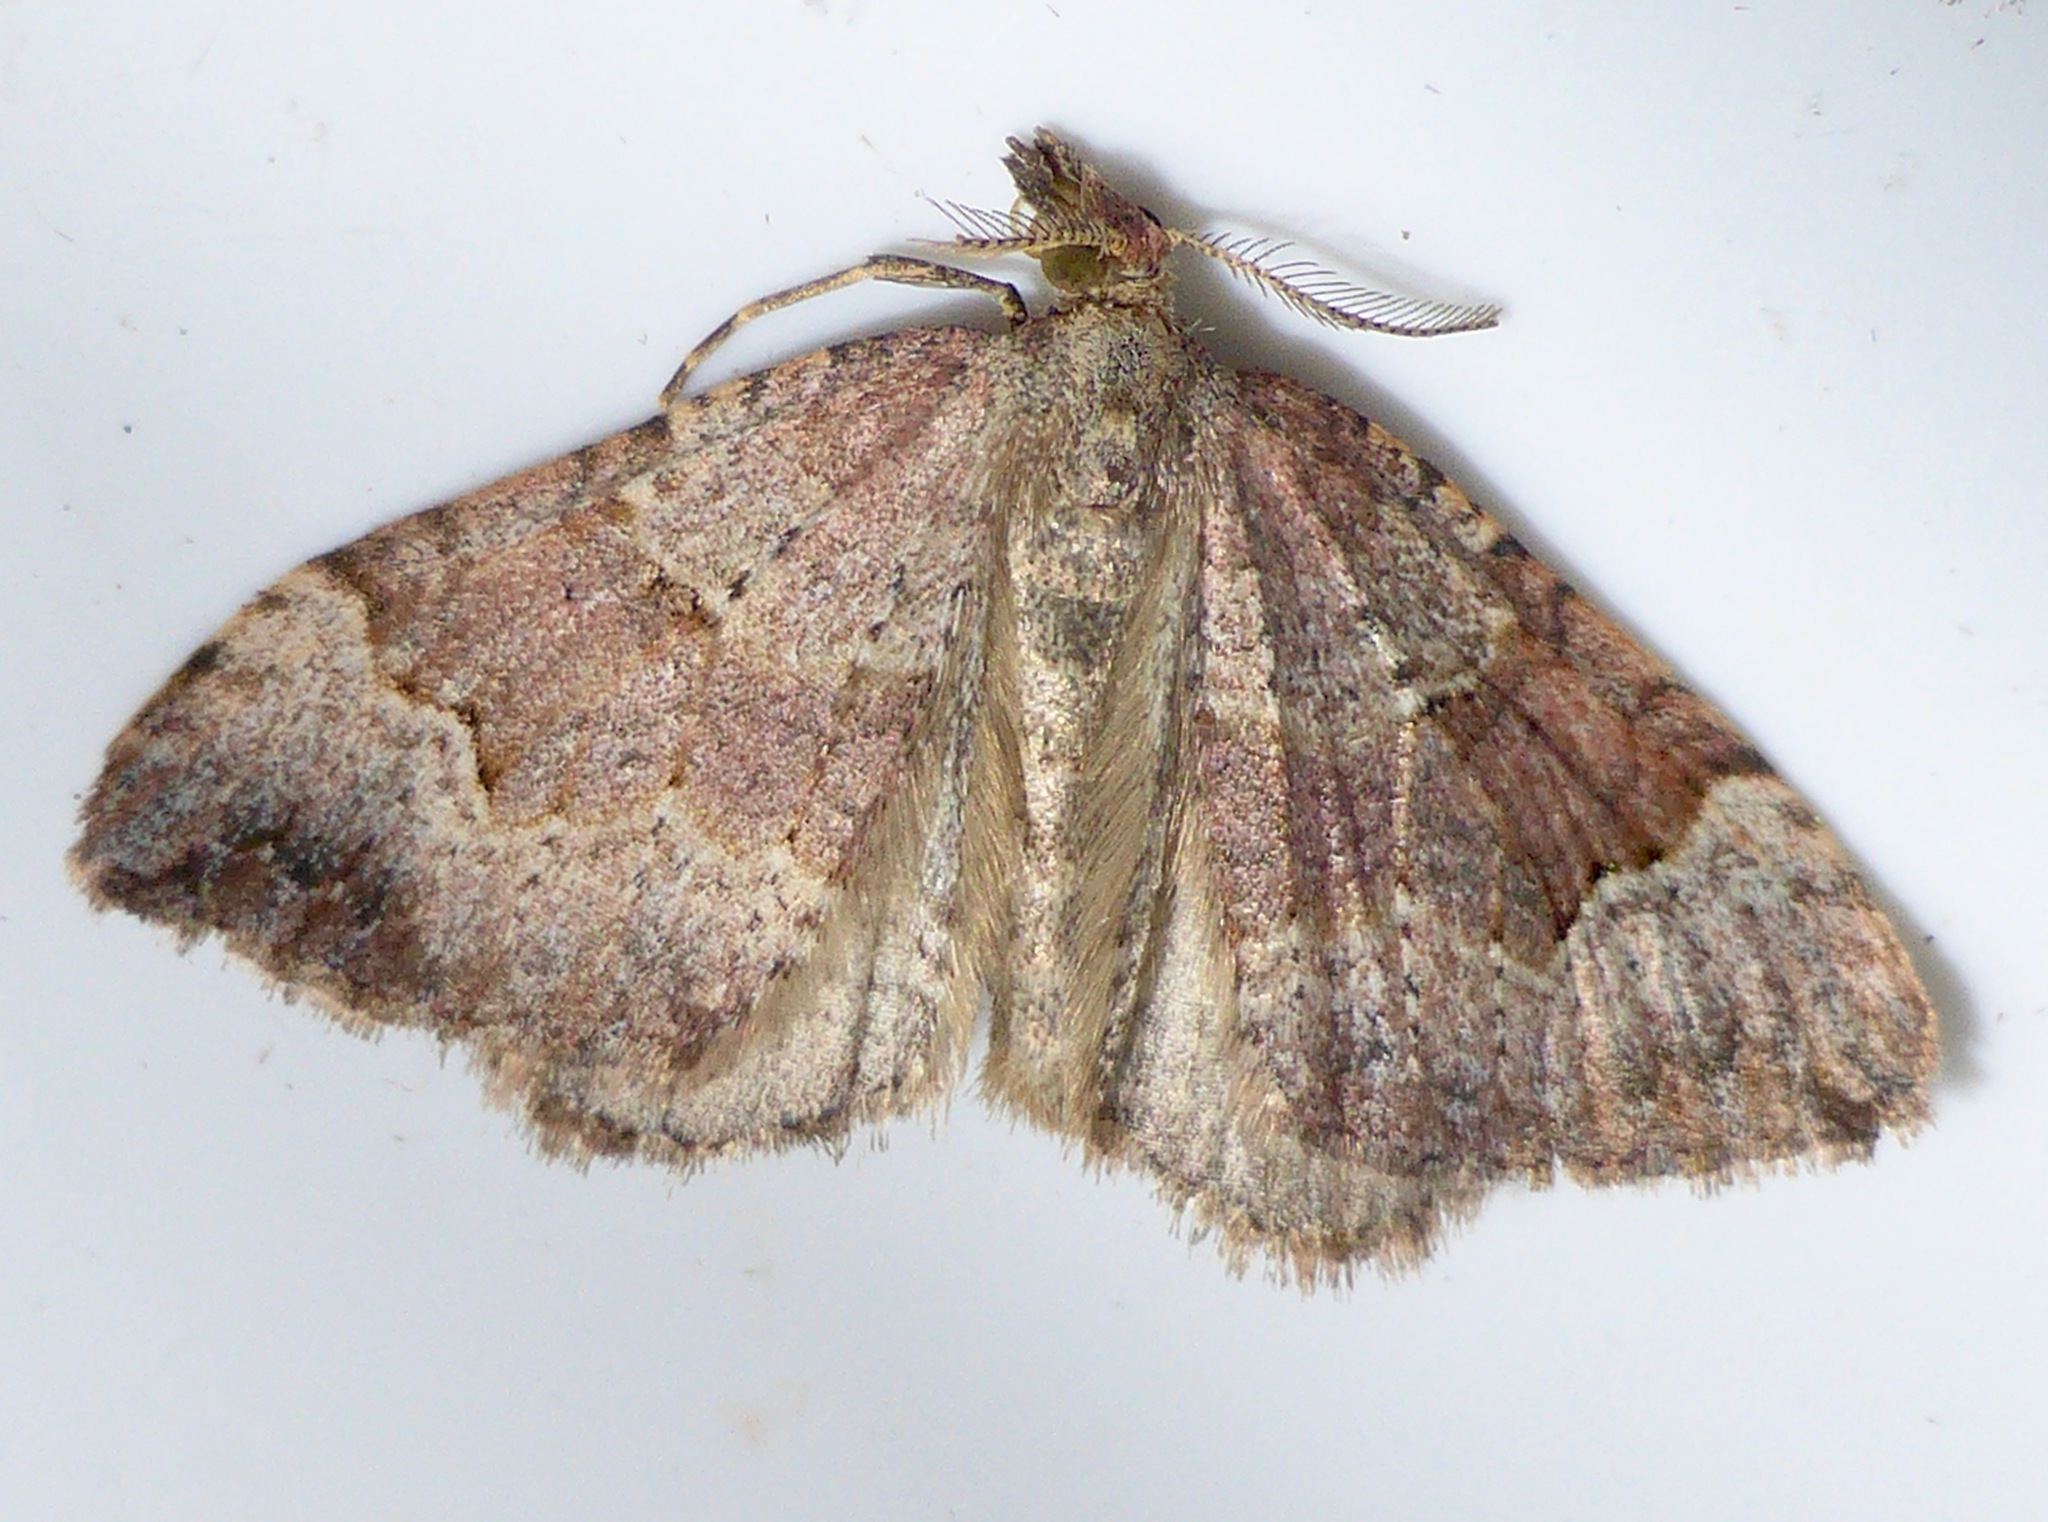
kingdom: Animalia
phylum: Arthropoda
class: Insecta
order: Lepidoptera
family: Geometridae
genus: Epyaxa
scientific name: Epyaxa rosearia
